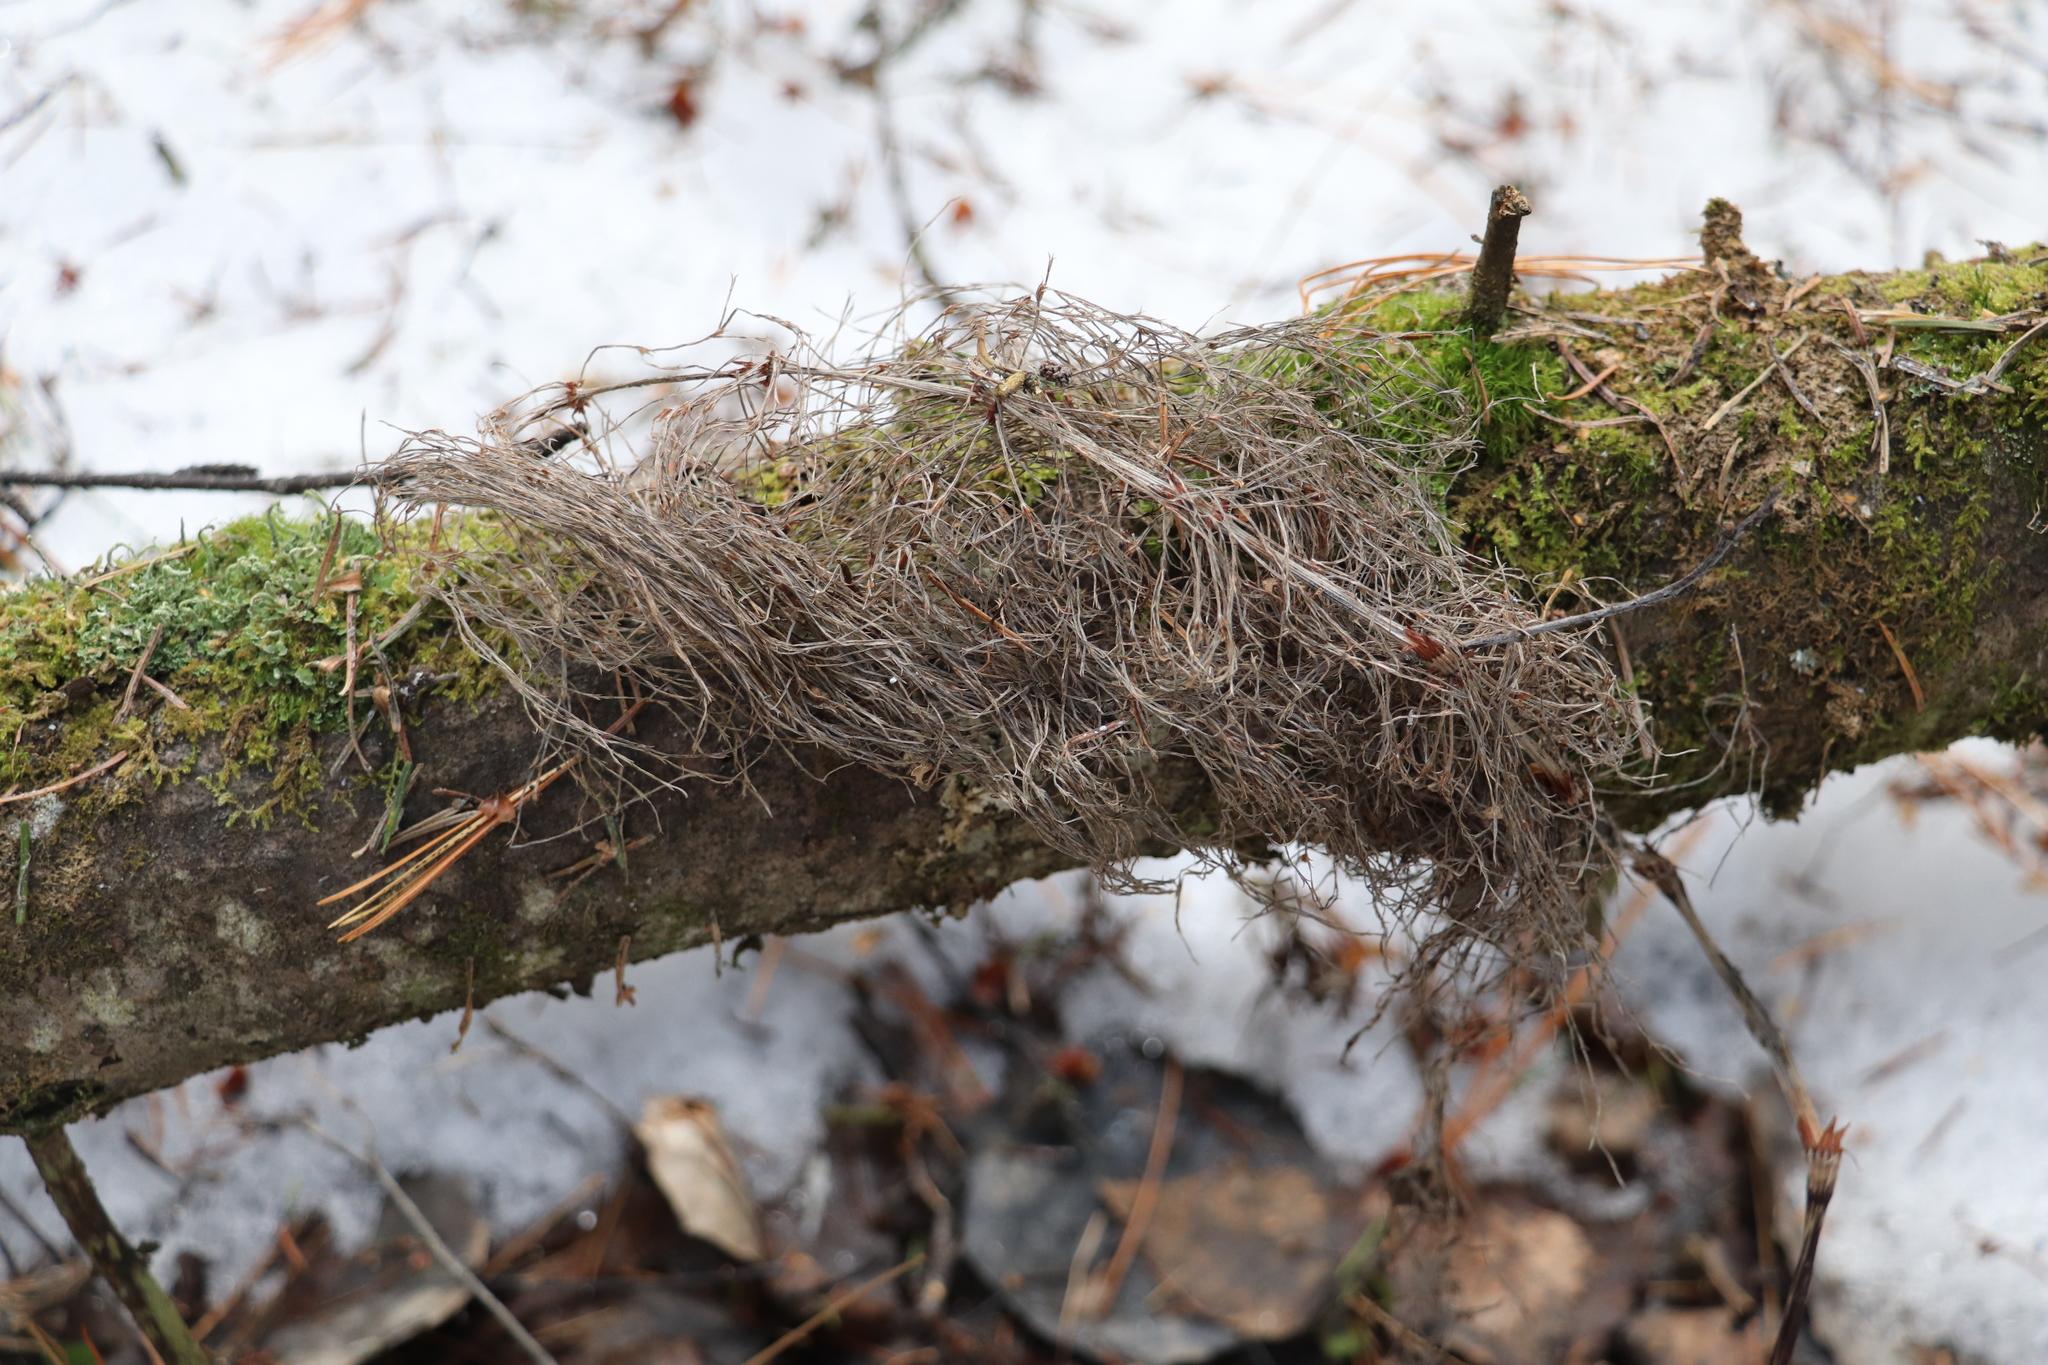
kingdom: Plantae
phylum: Tracheophyta
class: Polypodiopsida
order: Equisetales
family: Equisetaceae
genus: Equisetum
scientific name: Equisetum sylvaticum
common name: Wood horsetail
